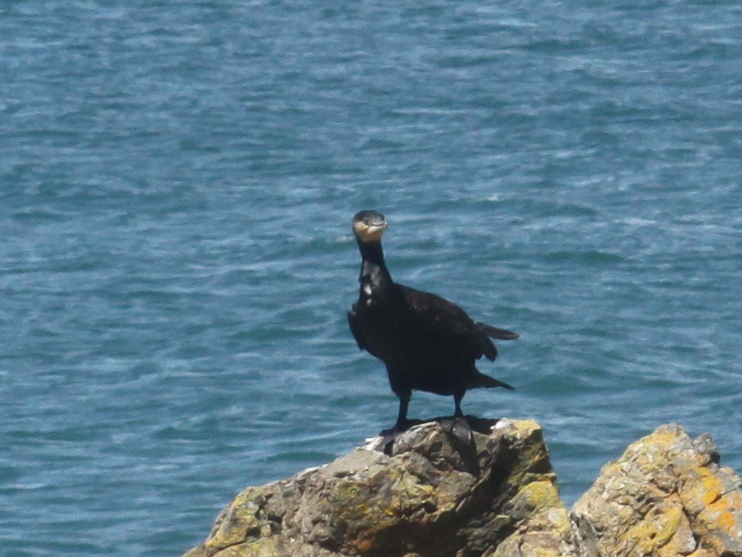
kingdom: Animalia
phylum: Chordata
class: Aves
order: Suliformes
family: Phalacrocoracidae
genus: Phalacrocorax
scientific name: Phalacrocorax carbo
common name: Great cormorant
